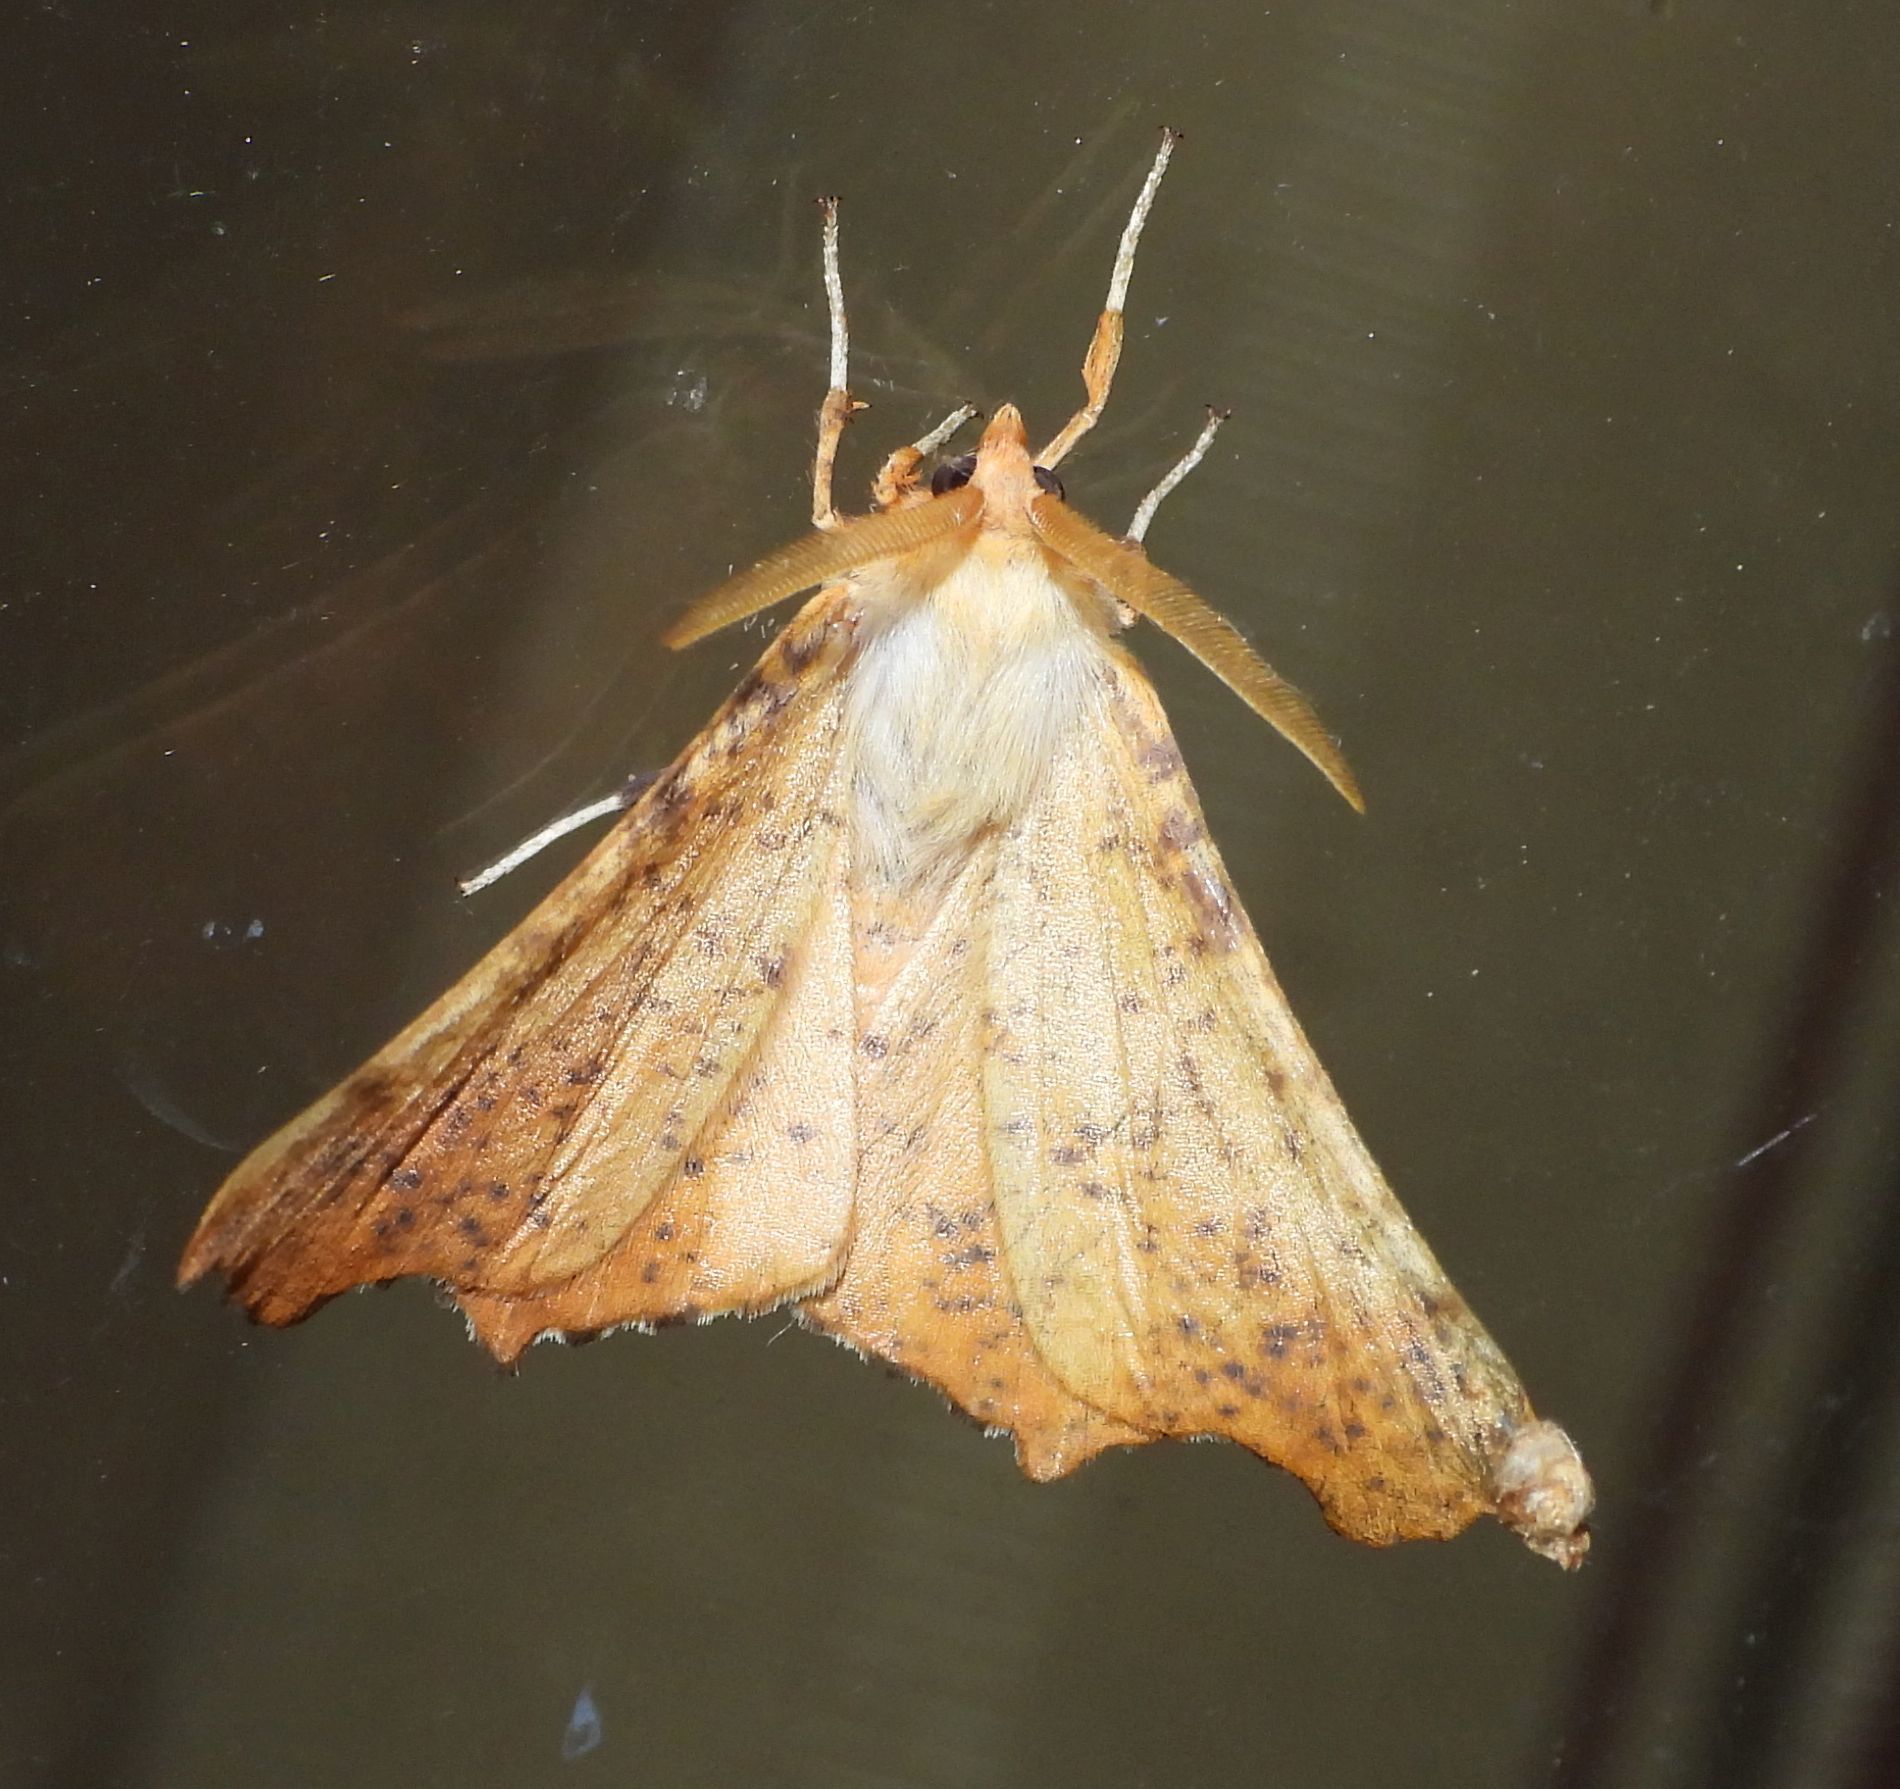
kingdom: Animalia
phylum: Arthropoda
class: Insecta
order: Lepidoptera
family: Geometridae
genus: Ennomos
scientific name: Ennomos magnaria
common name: Maple spanworm
